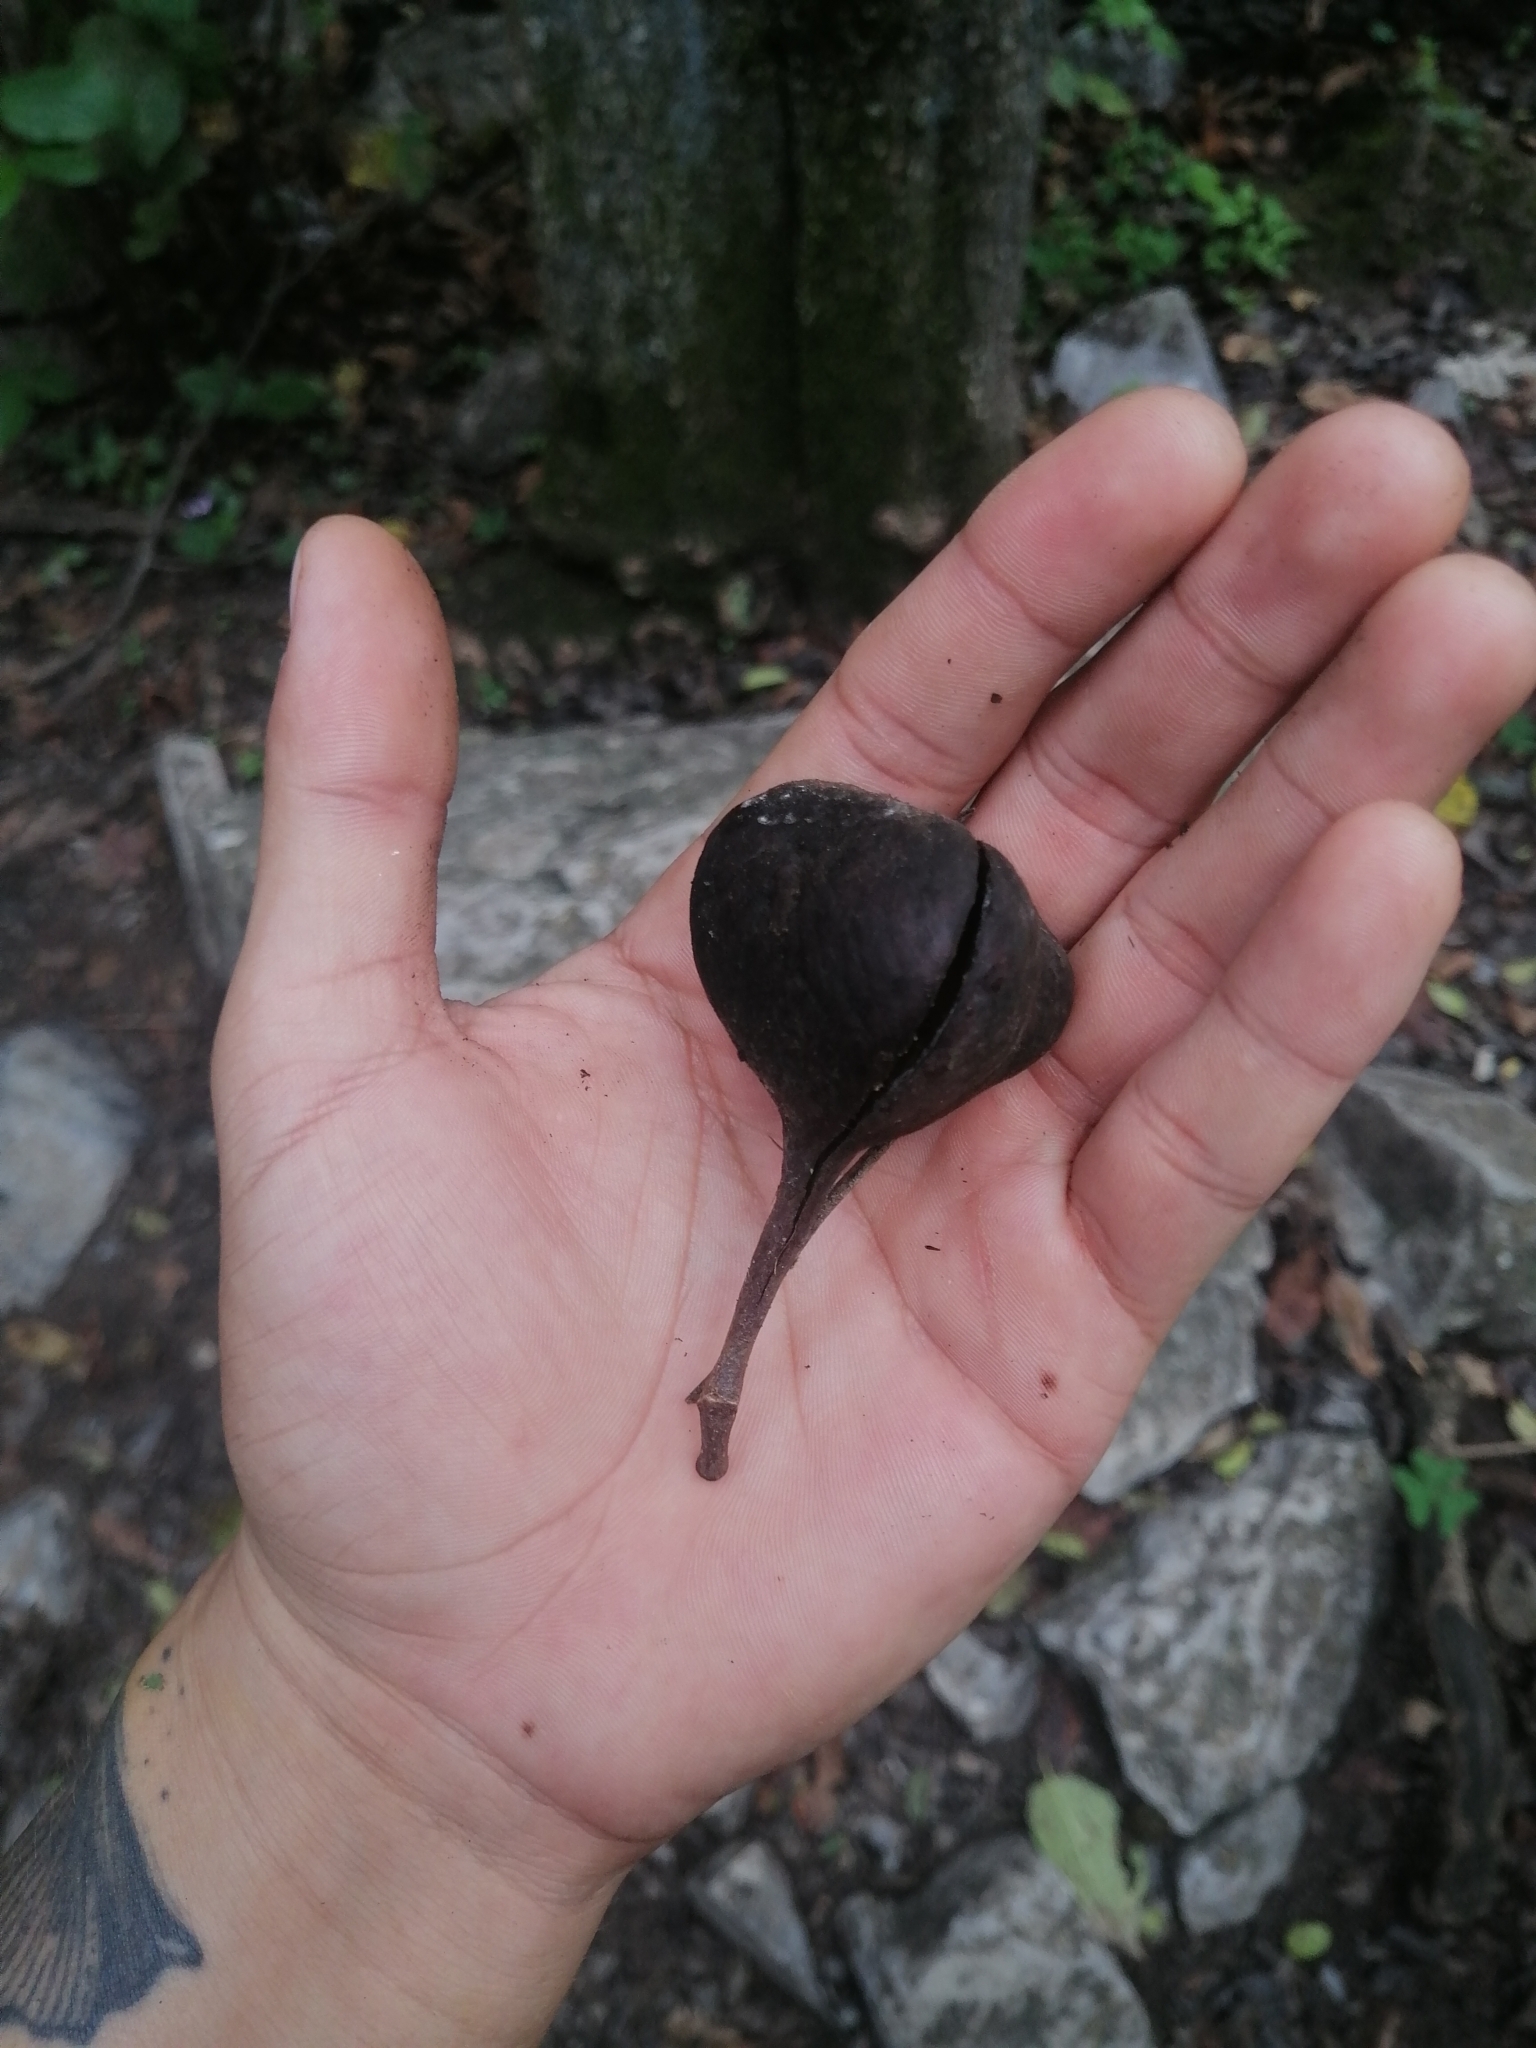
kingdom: Plantae
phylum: Tracheophyta
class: Magnoliopsida
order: Sapindales
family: Sapindaceae
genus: Ungnadia
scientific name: Ungnadia speciosa
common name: Texas-buckeye
